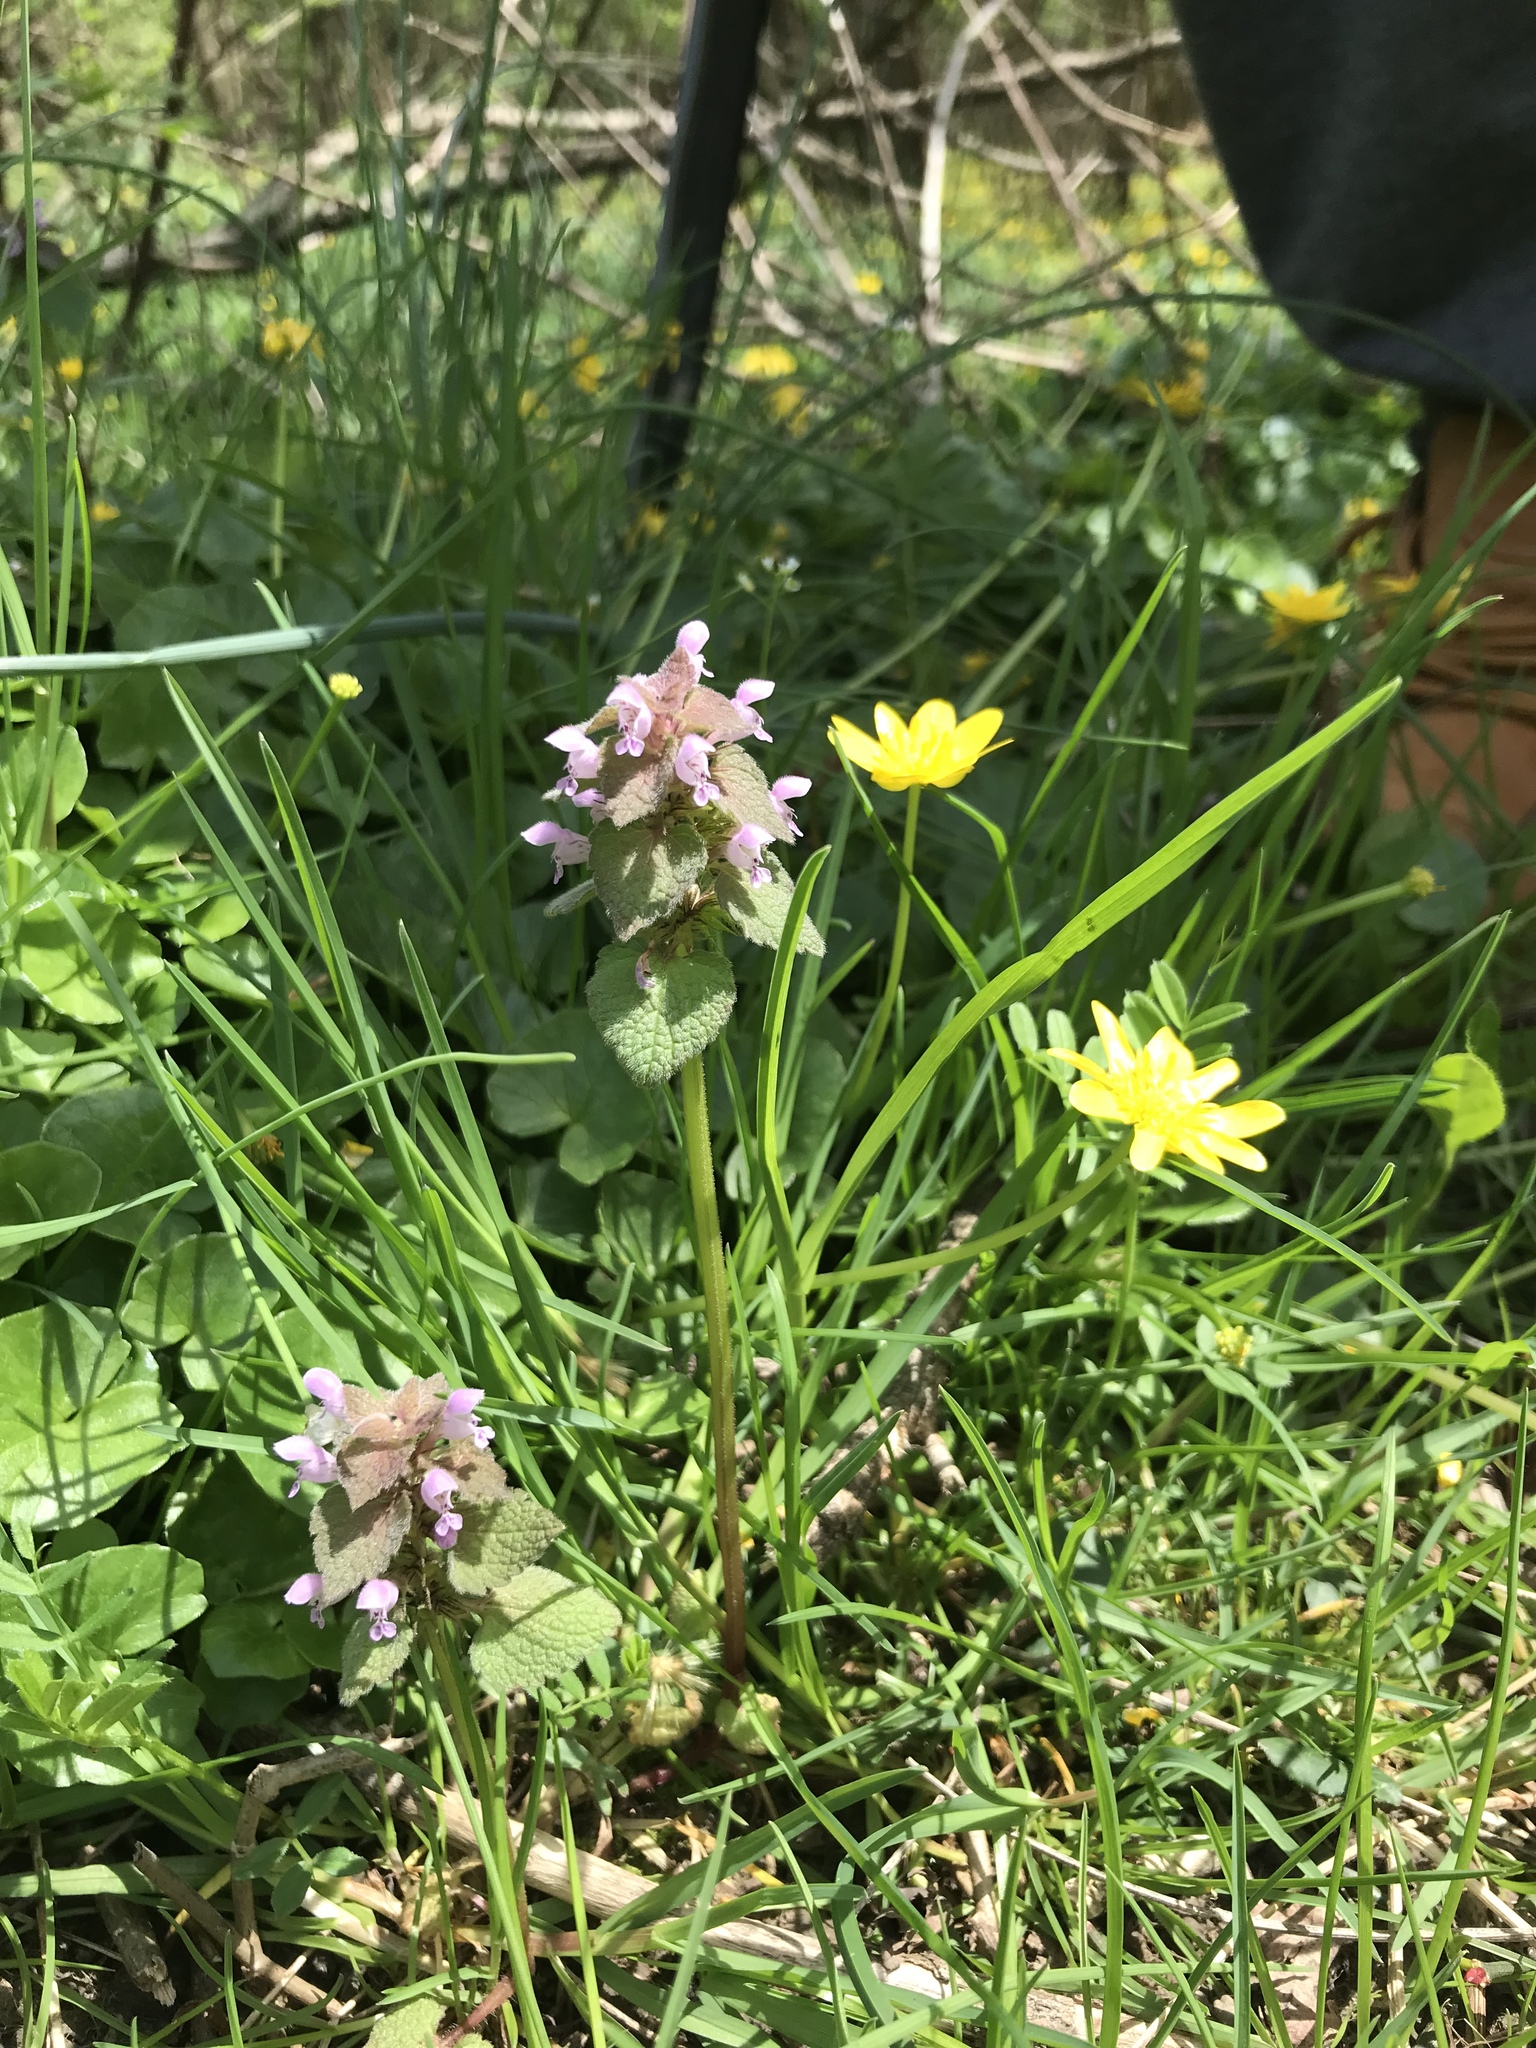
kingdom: Plantae
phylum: Tracheophyta
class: Magnoliopsida
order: Lamiales
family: Lamiaceae
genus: Lamium
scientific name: Lamium purpureum
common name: Red dead-nettle
